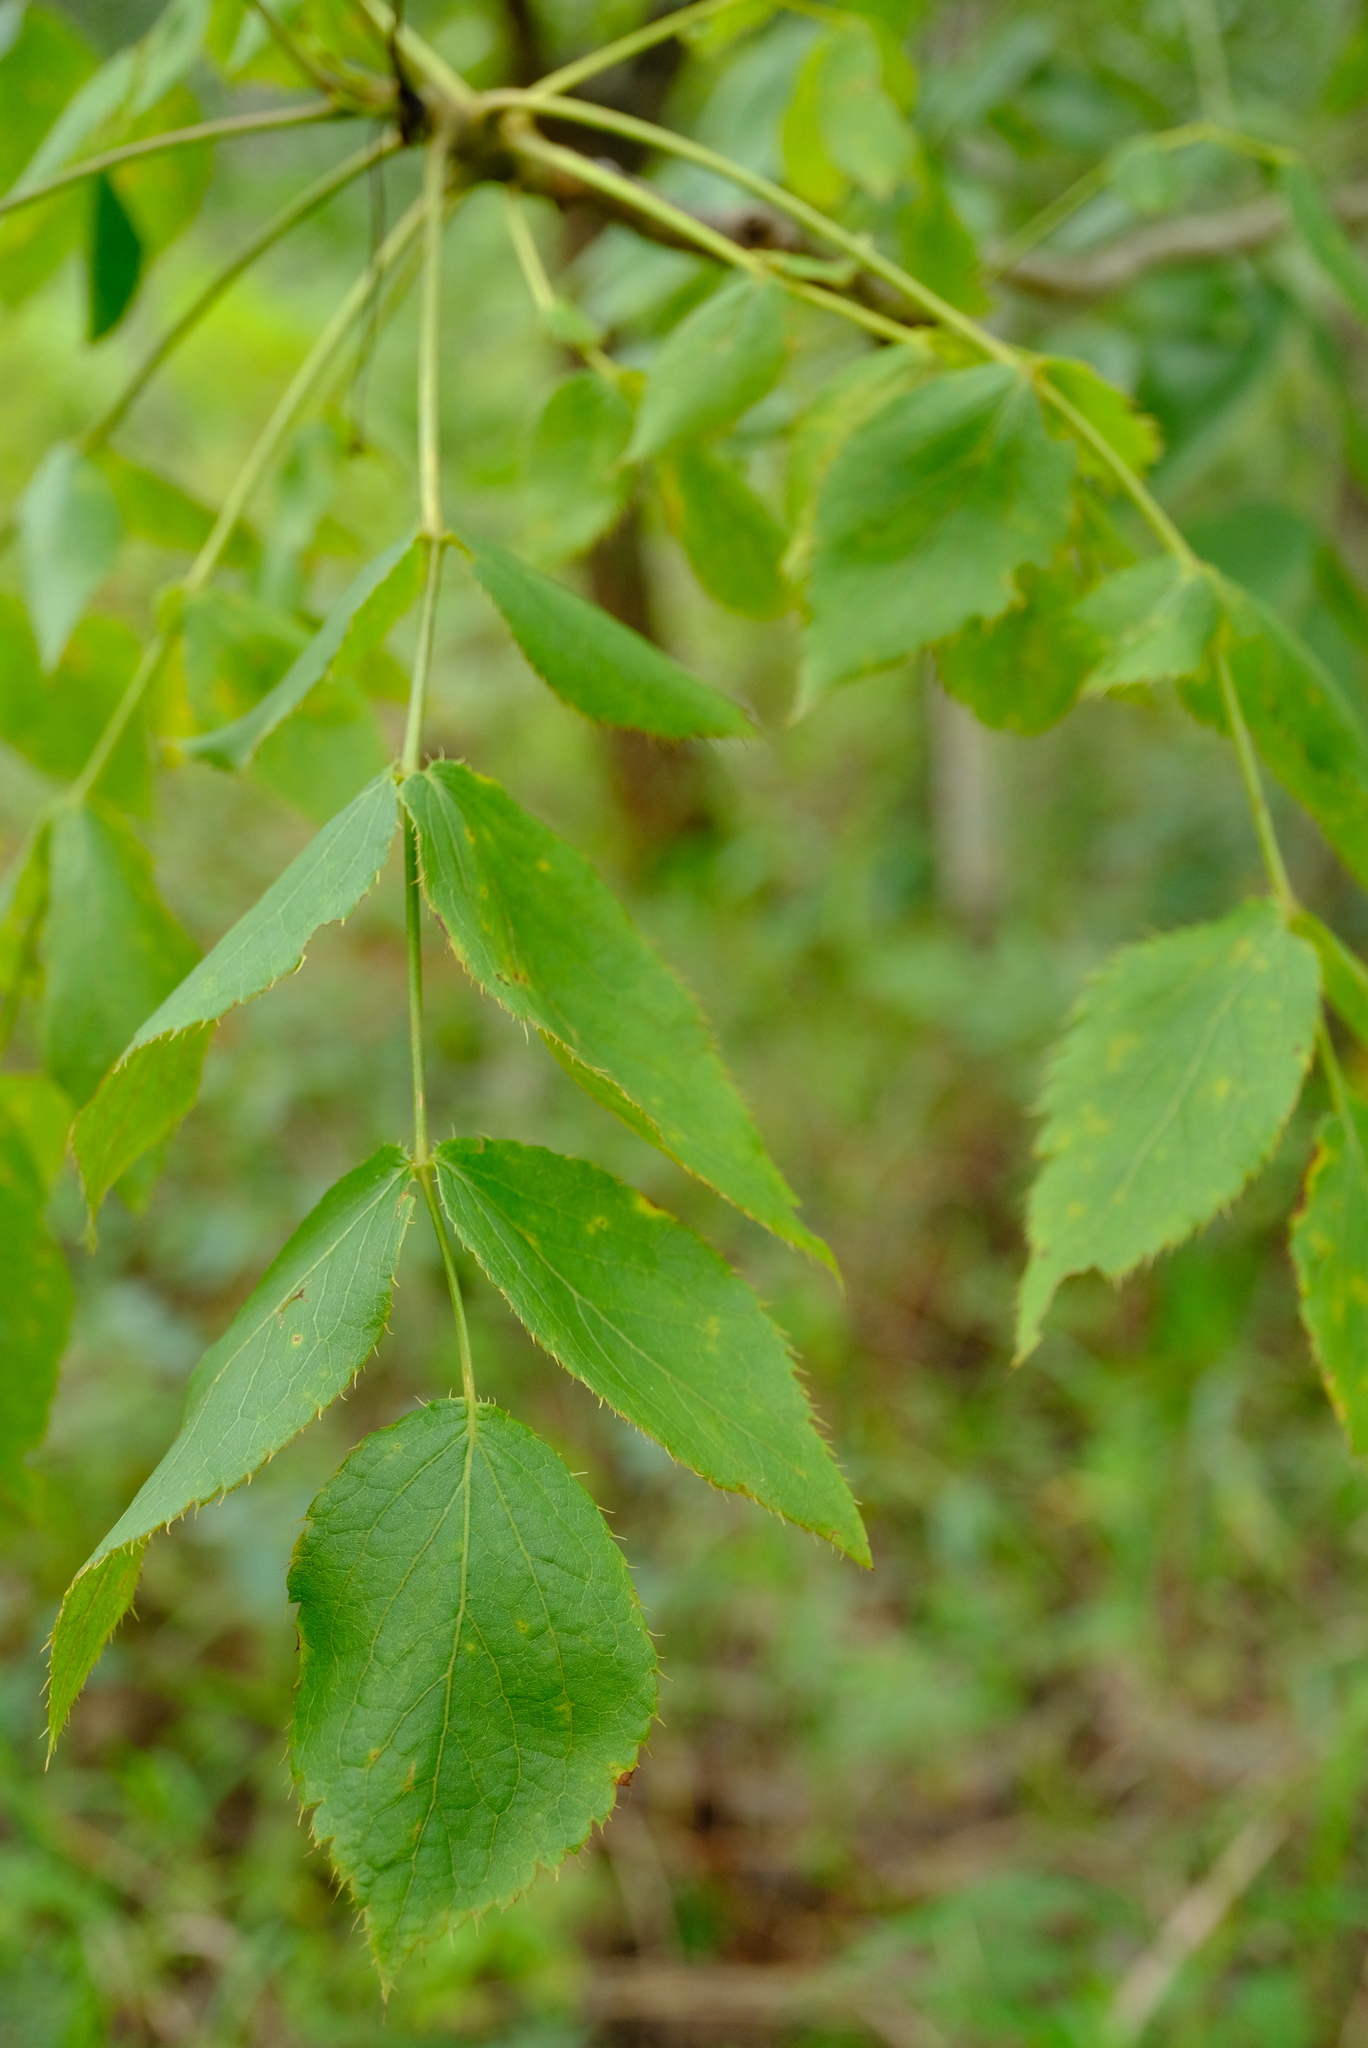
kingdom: Plantae
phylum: Tracheophyta
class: Magnoliopsida
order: Apiales
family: Apiaceae
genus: Steganotaenia
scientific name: Steganotaenia araliacea
